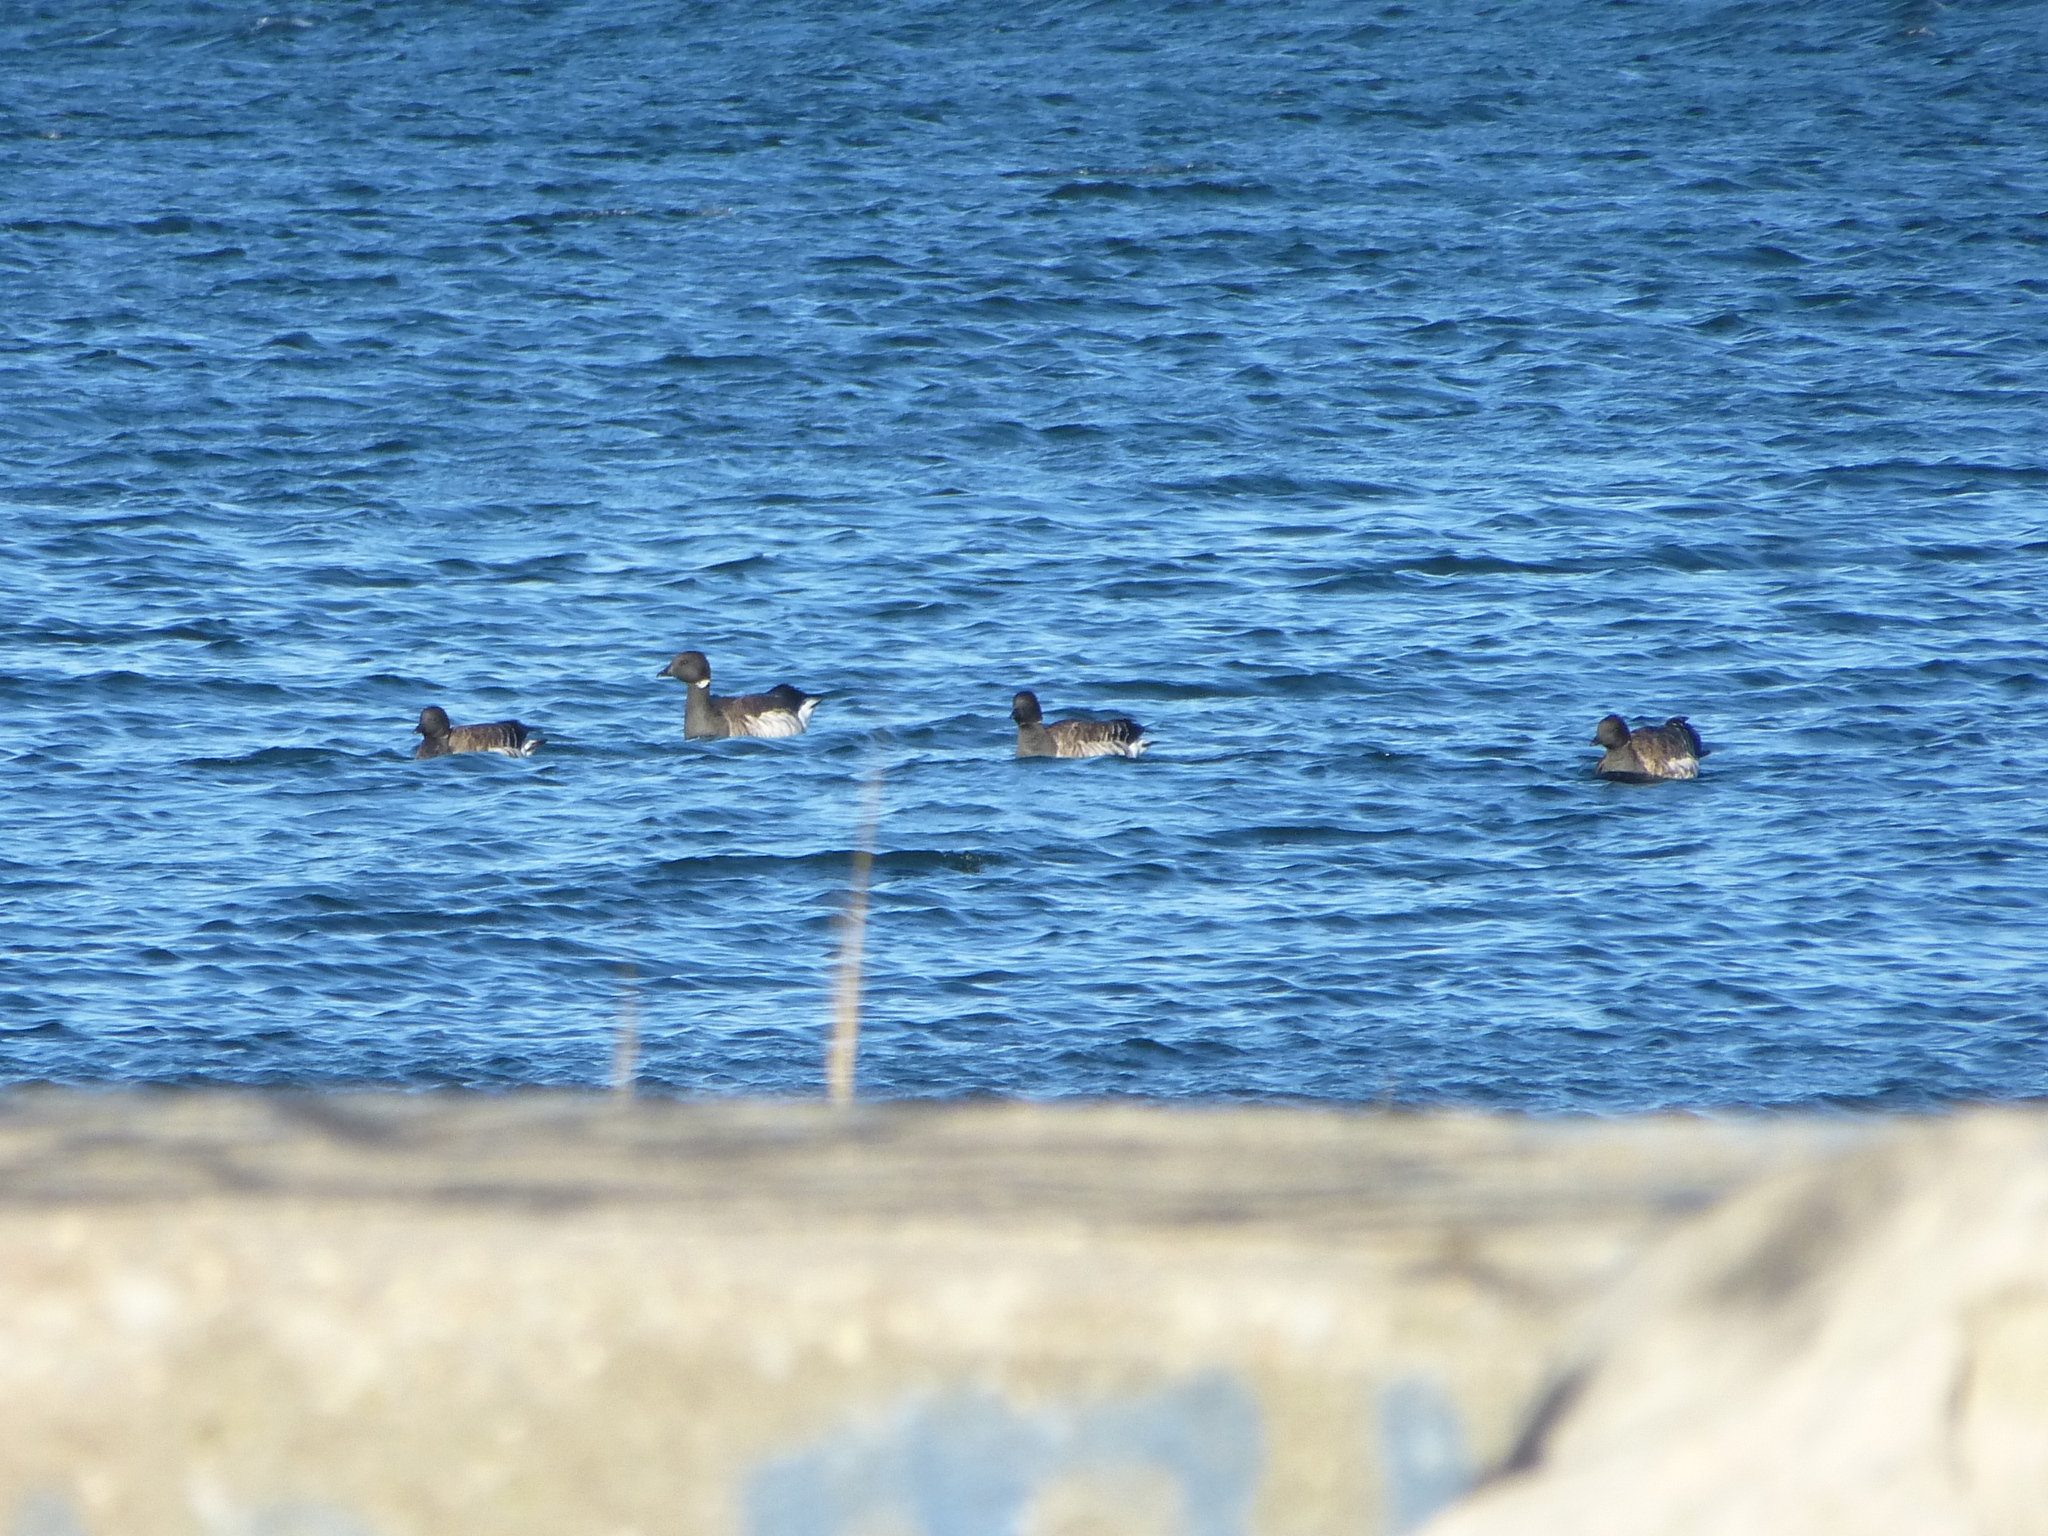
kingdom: Animalia
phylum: Chordata
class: Aves
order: Anseriformes
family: Anatidae
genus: Branta
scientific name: Branta bernicla
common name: Brant goose
